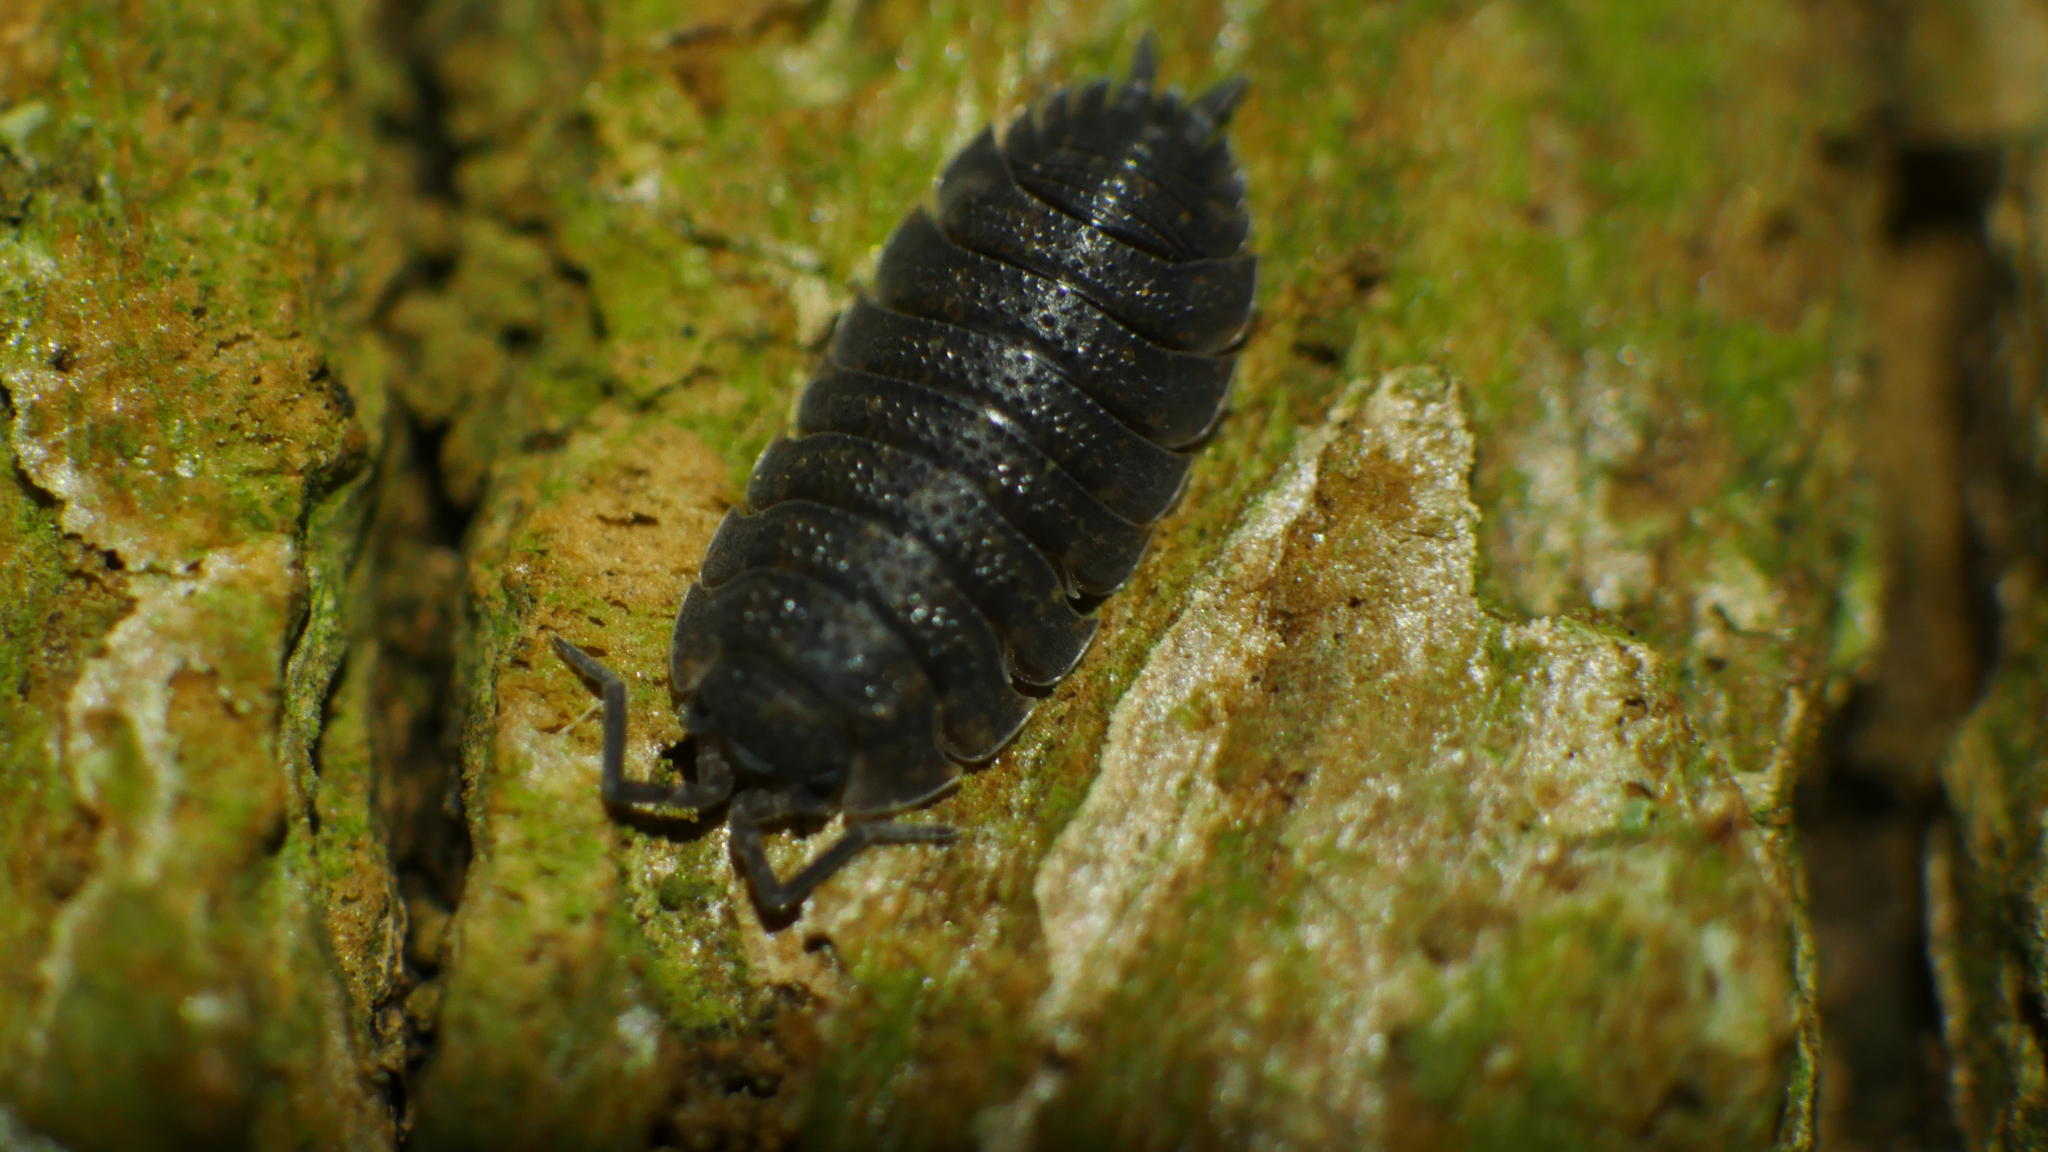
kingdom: Animalia
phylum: Arthropoda
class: Malacostraca
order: Isopoda
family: Porcellionidae
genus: Porcellio
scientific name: Porcellio scaber
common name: Common rough woodlouse
